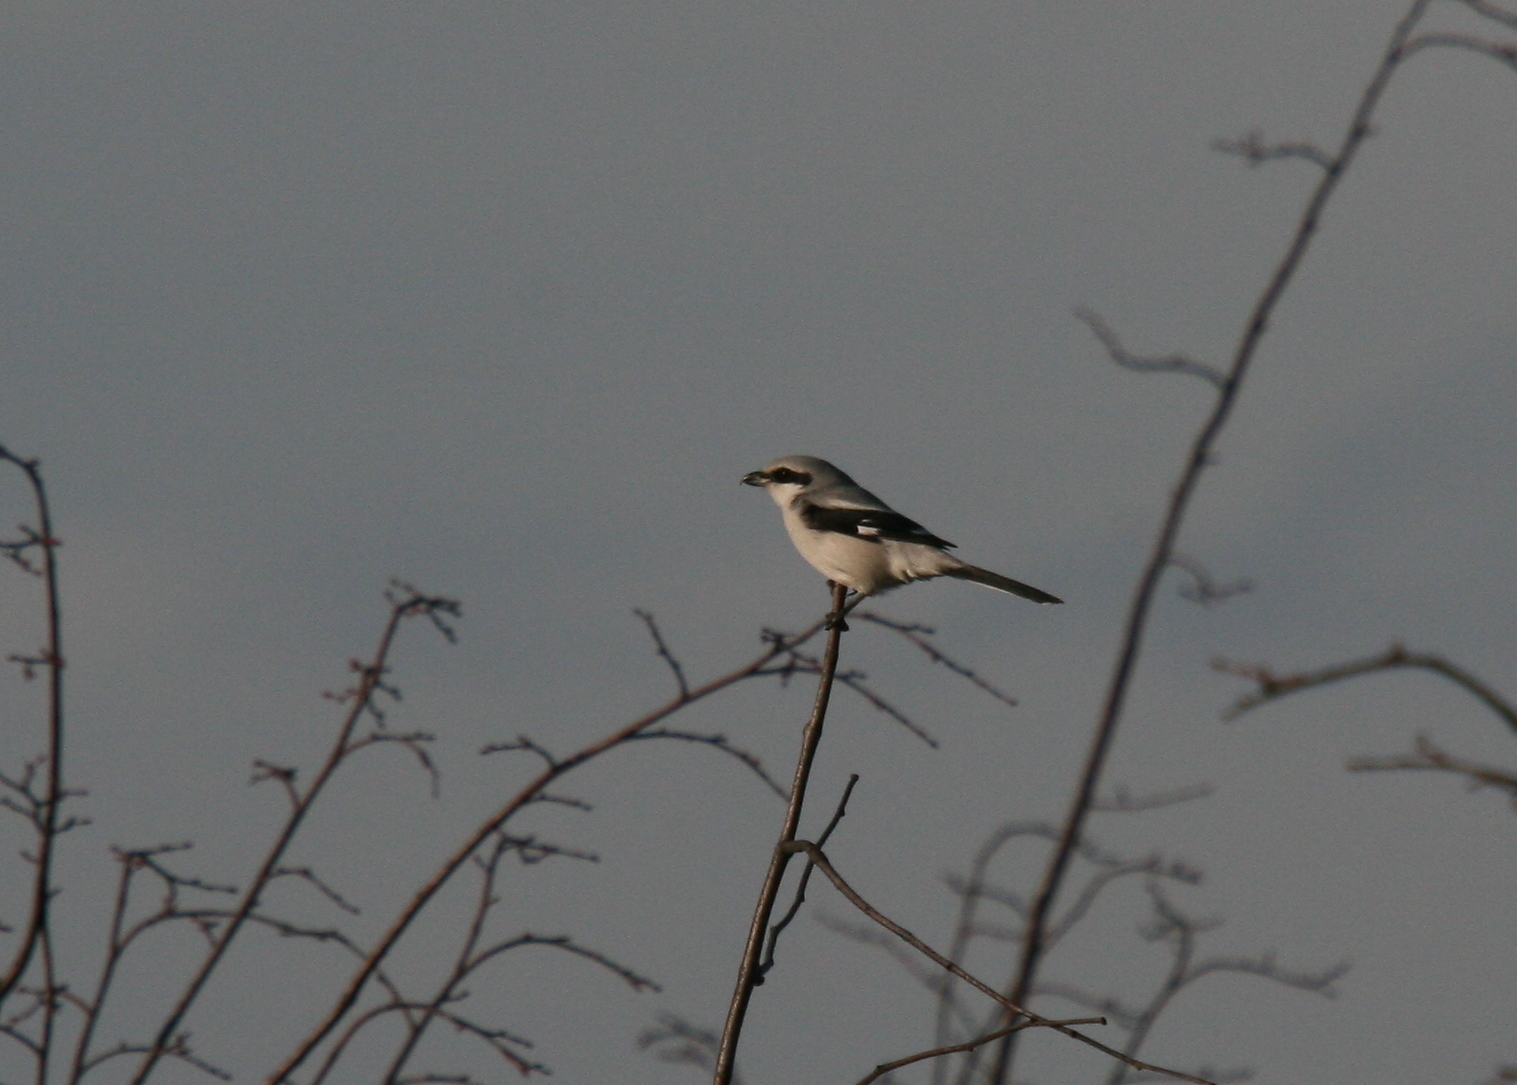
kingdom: Animalia
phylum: Chordata
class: Aves
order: Passeriformes
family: Laniidae
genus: Lanius
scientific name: Lanius excubitor
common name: Great grey shrike
